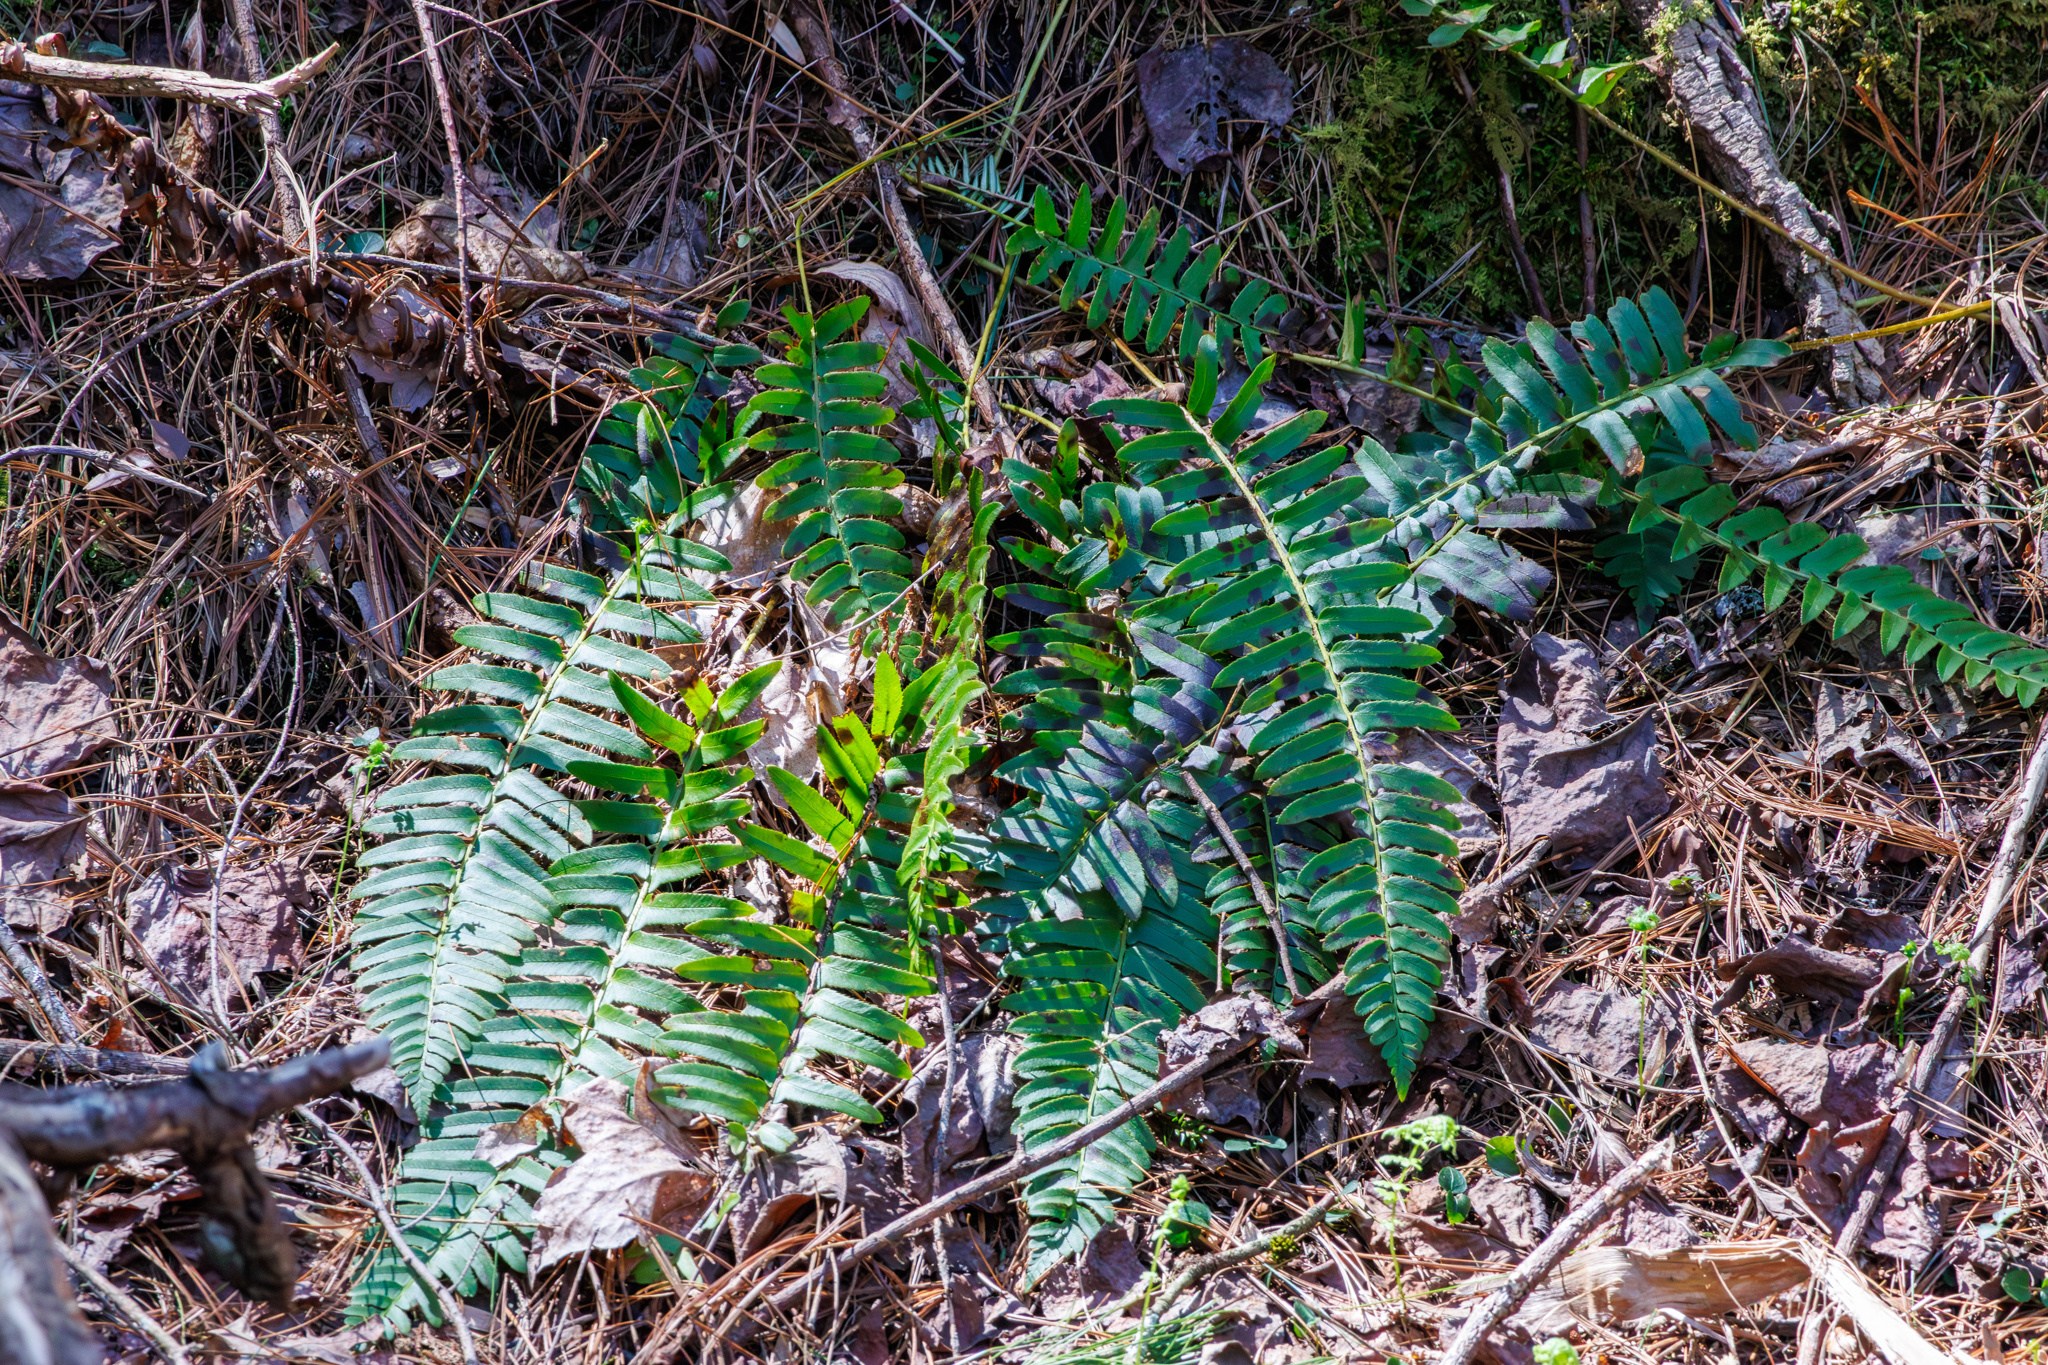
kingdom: Plantae
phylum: Tracheophyta
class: Polypodiopsida
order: Polypodiales
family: Dryopteridaceae
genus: Polystichum
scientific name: Polystichum acrostichoides
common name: Christmas fern
